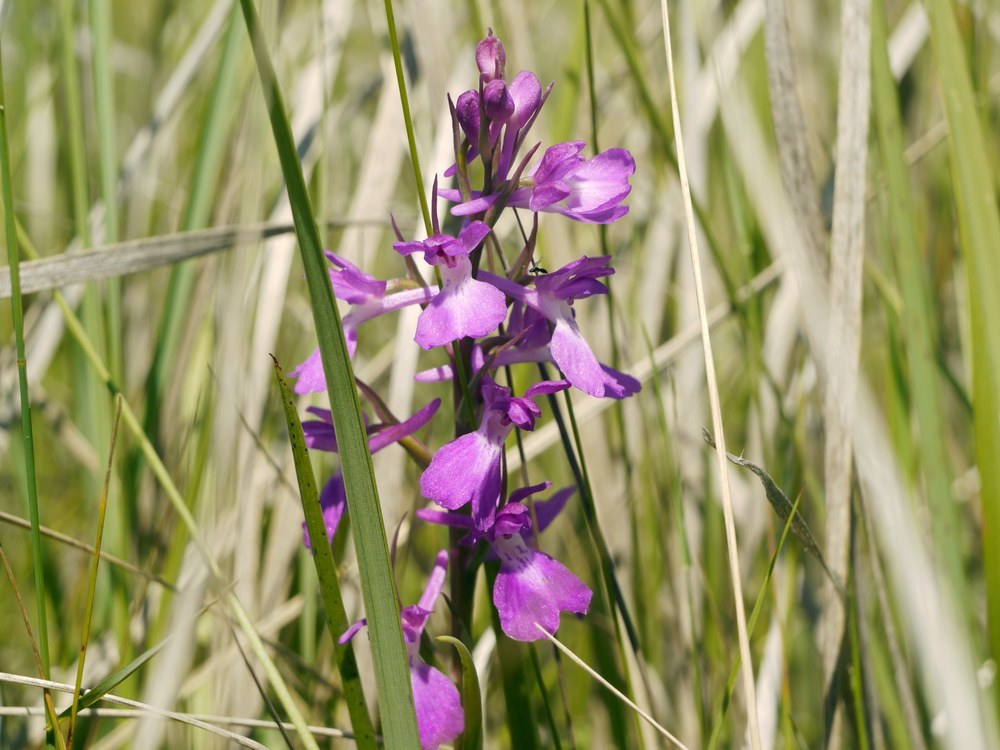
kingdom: Plantae
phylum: Tracheophyta
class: Liliopsida
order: Asparagales
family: Orchidaceae
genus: Anacamptis
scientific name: Anacamptis palustris
